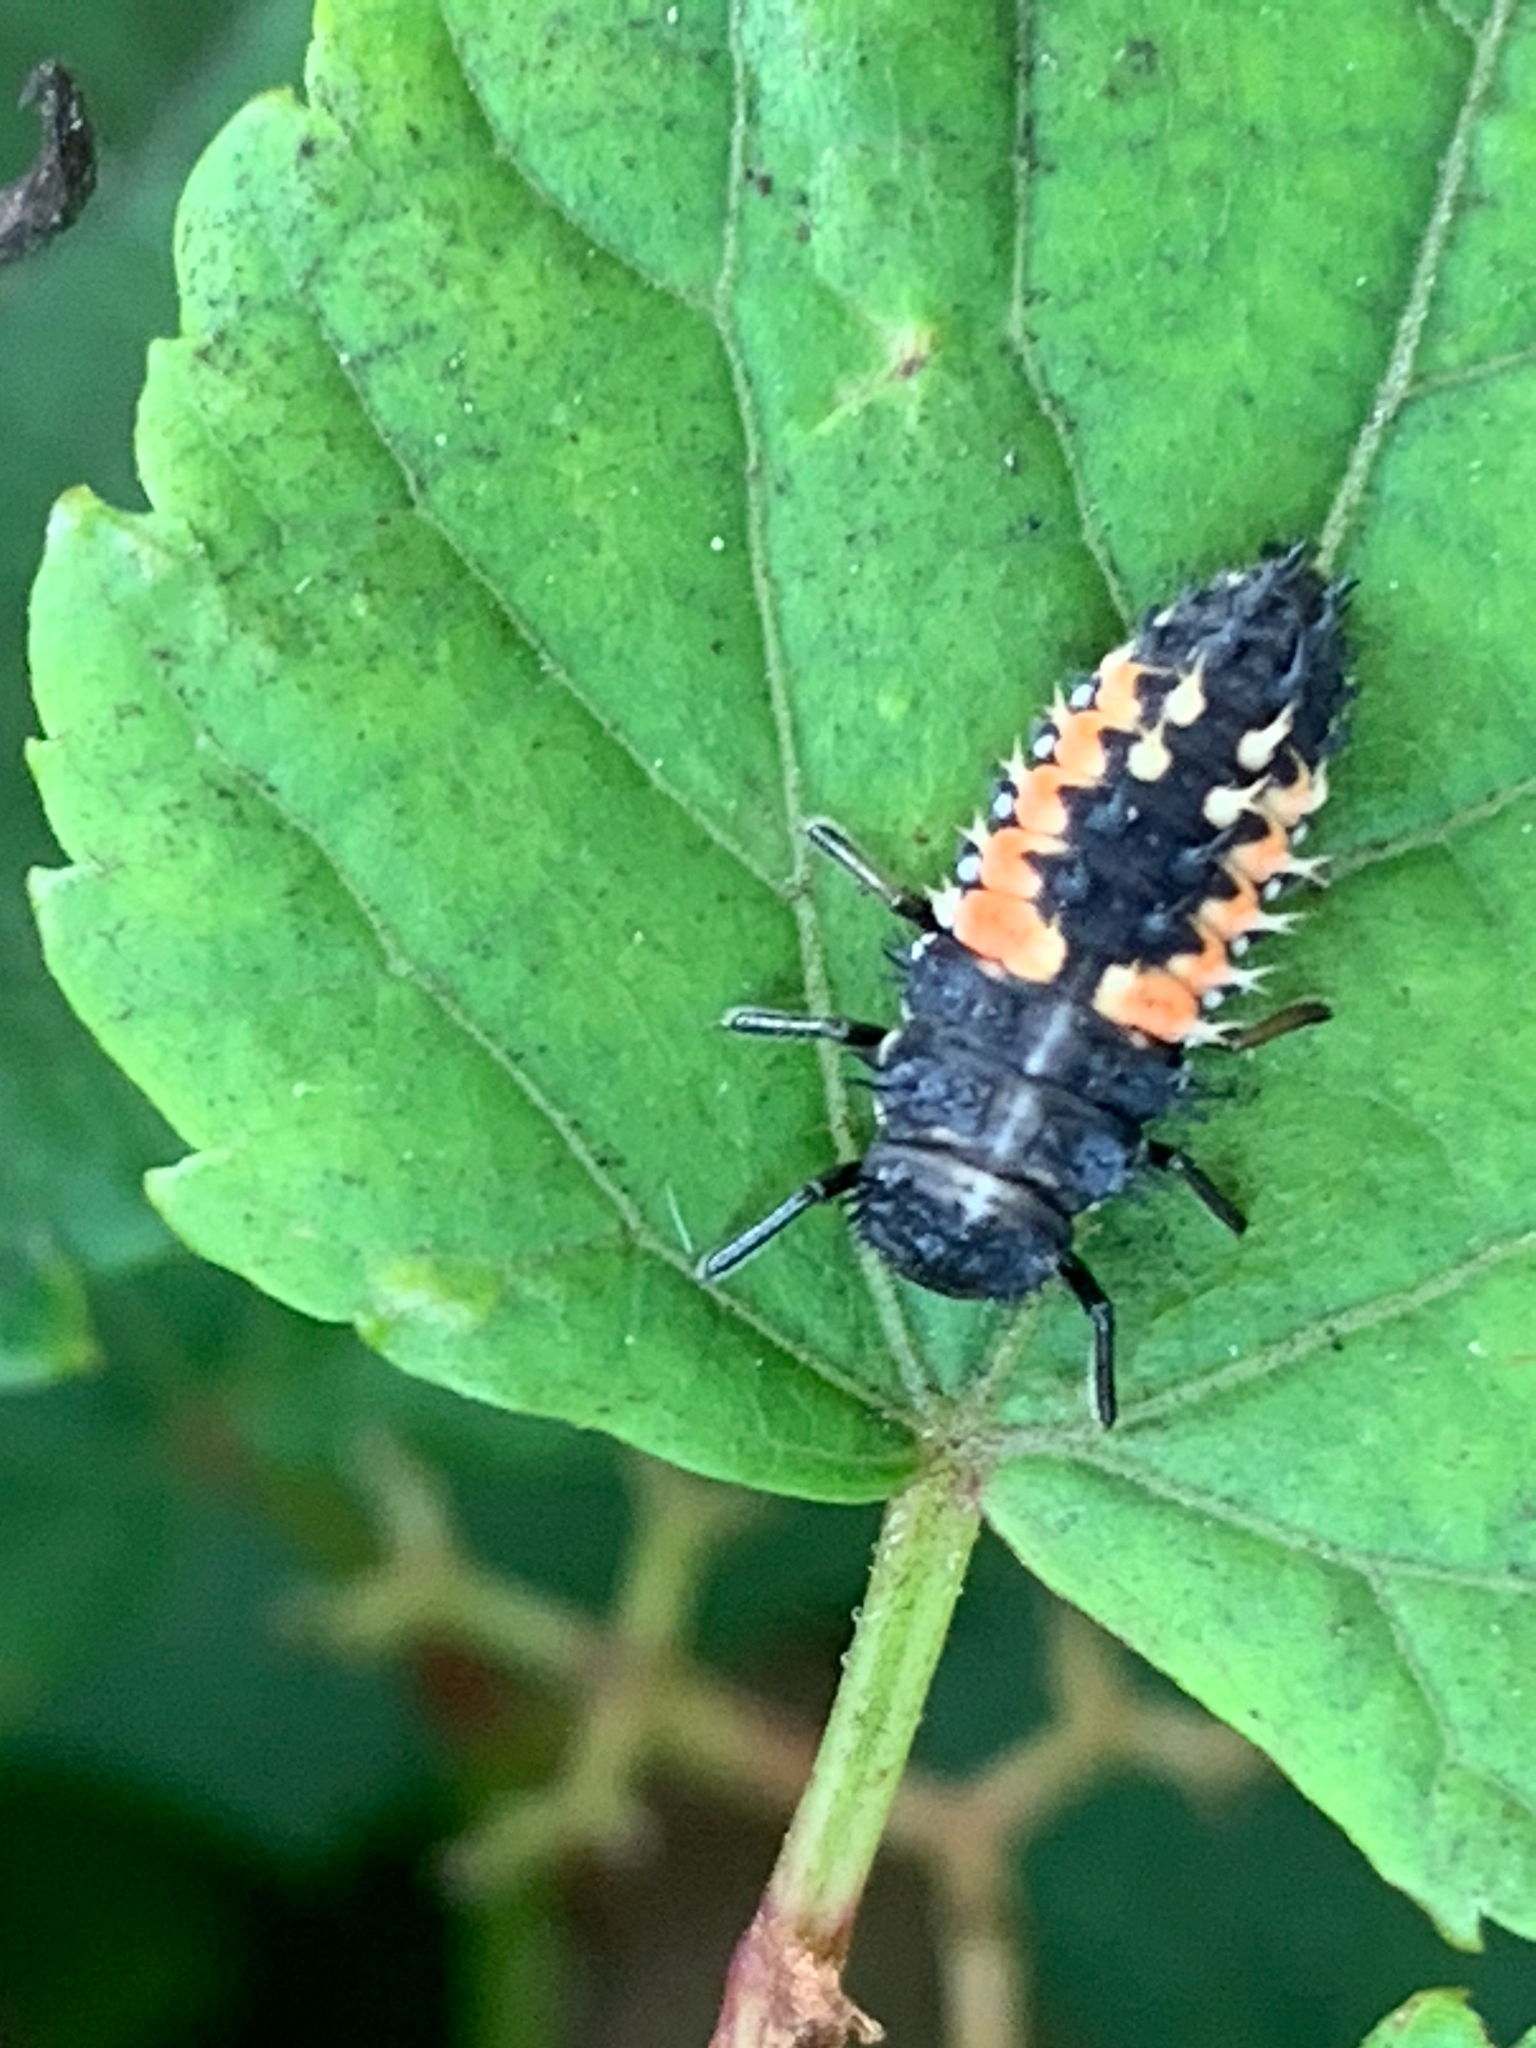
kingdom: Animalia
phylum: Arthropoda
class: Insecta
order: Coleoptera
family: Coccinellidae
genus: Harmonia
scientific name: Harmonia axyridis
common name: Harlequin ladybird
